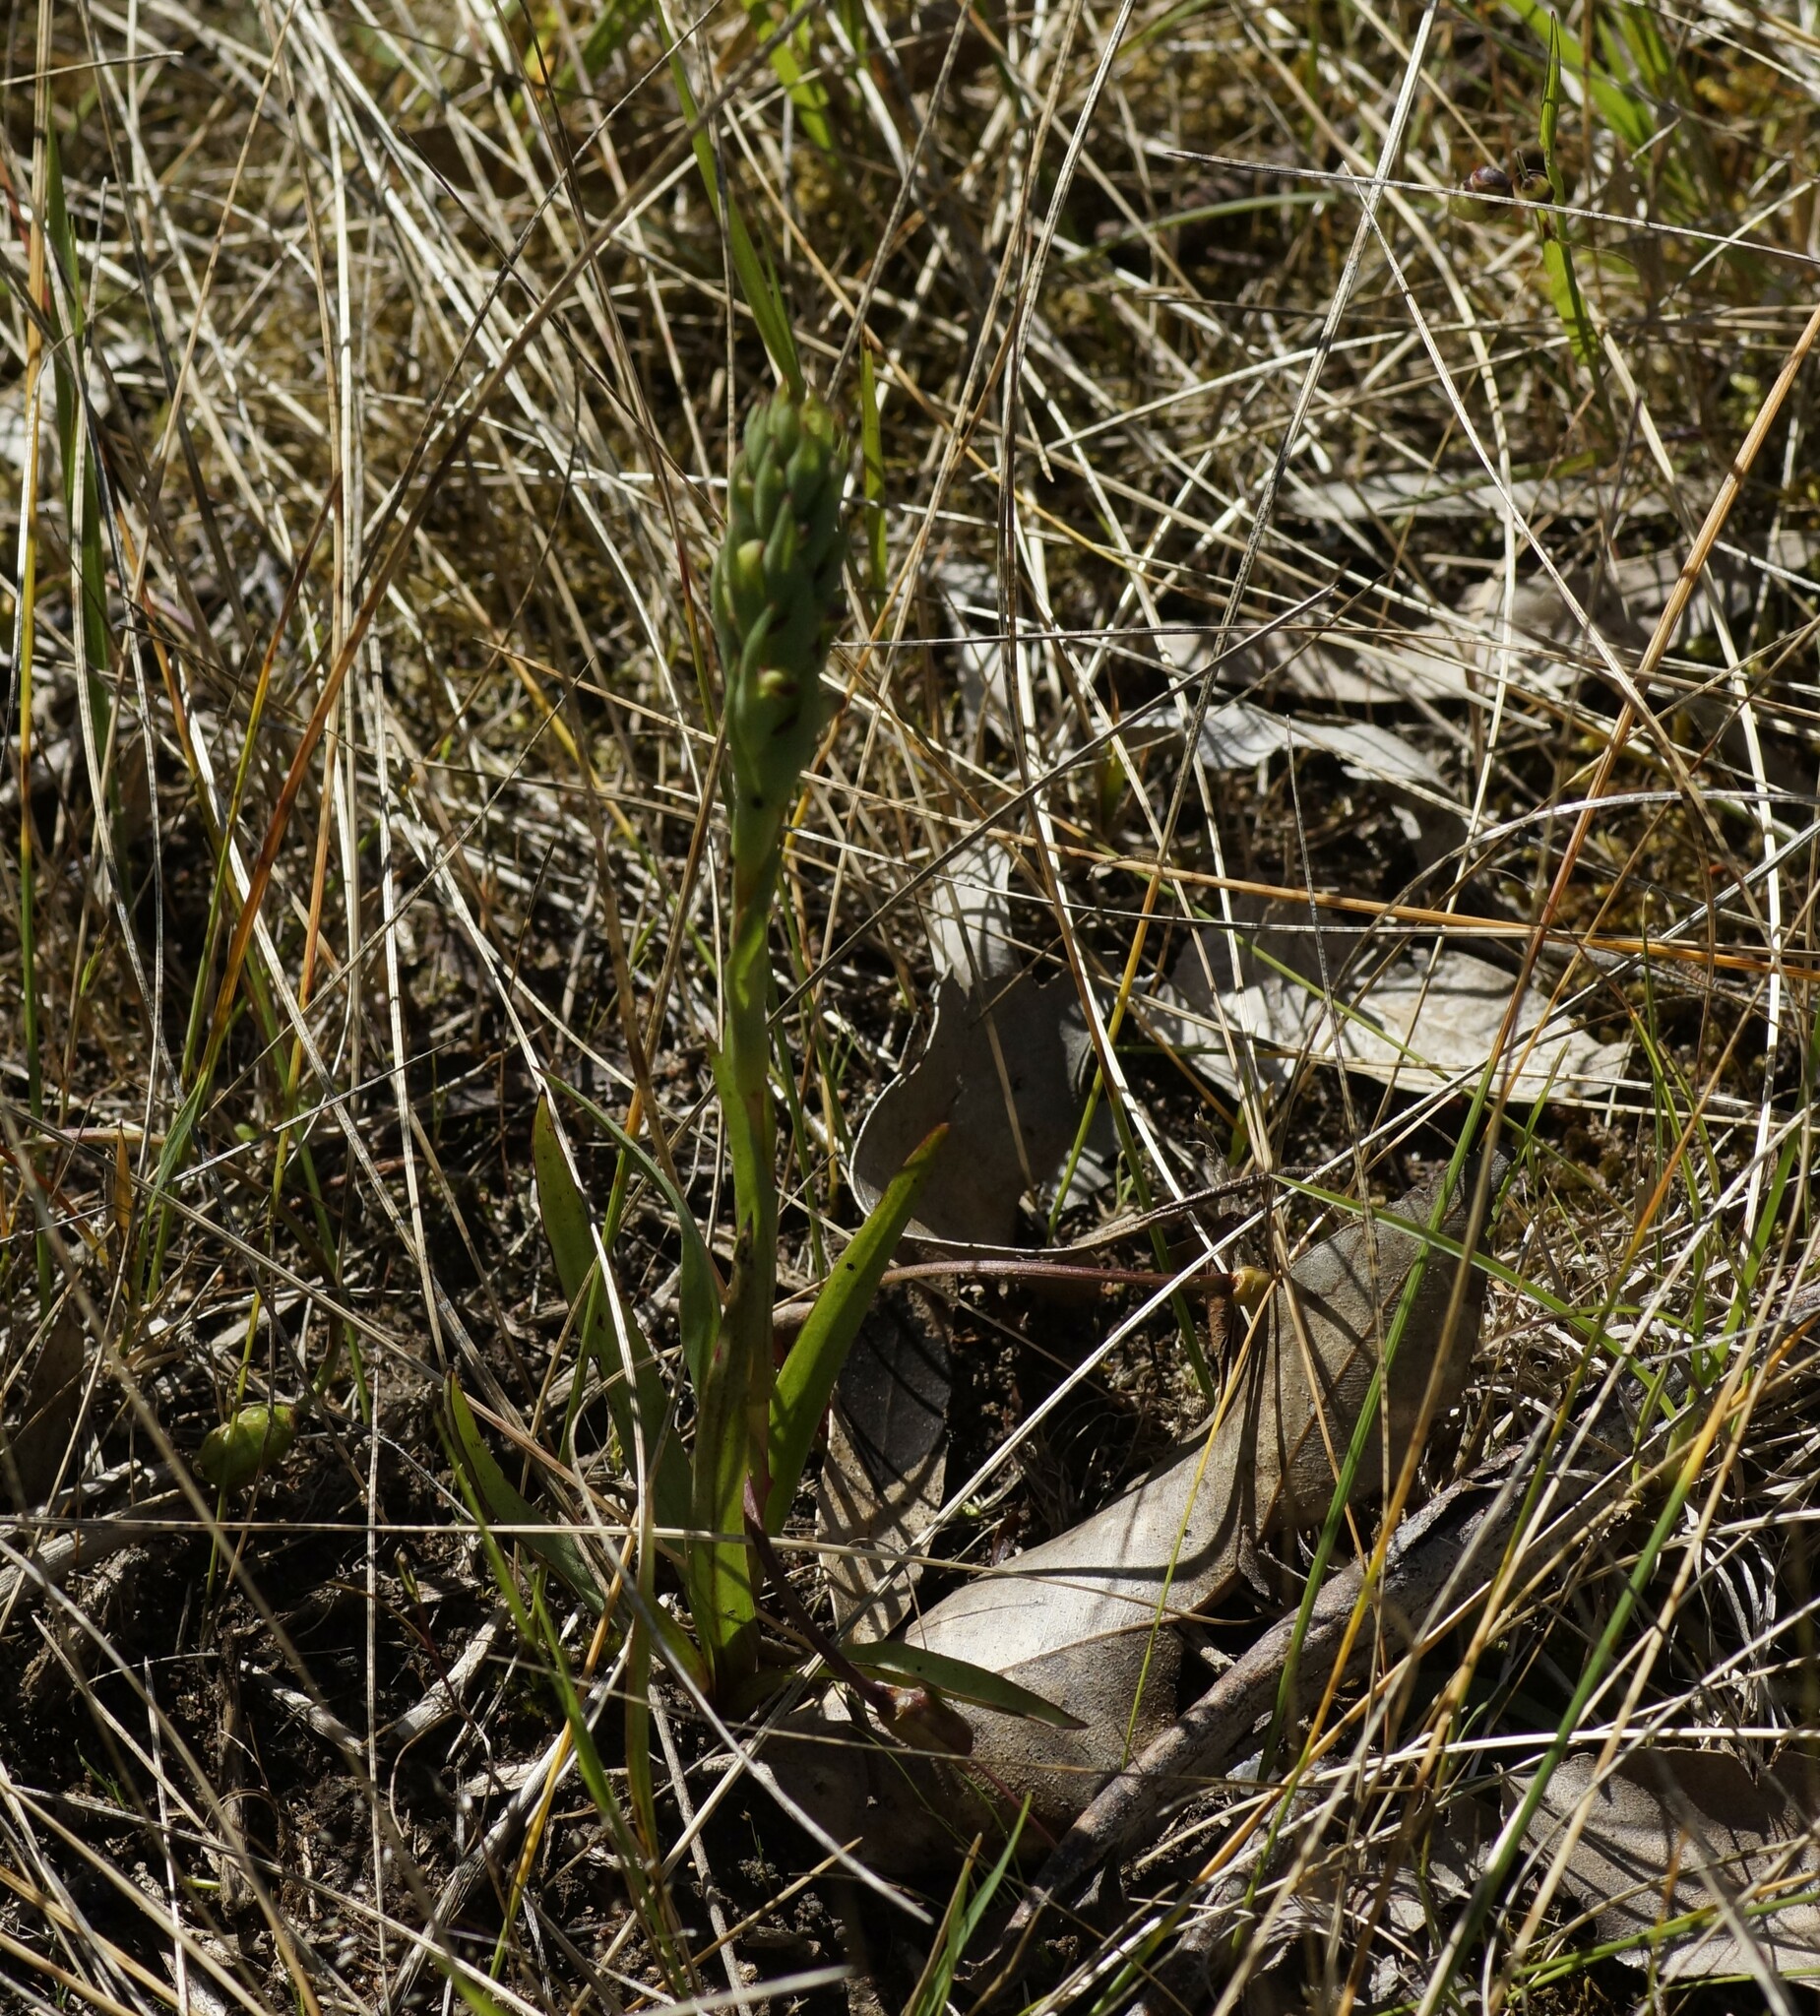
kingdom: Plantae
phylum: Tracheophyta
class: Liliopsida
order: Asparagales
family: Orchidaceae
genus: Disa
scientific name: Disa bracteata
